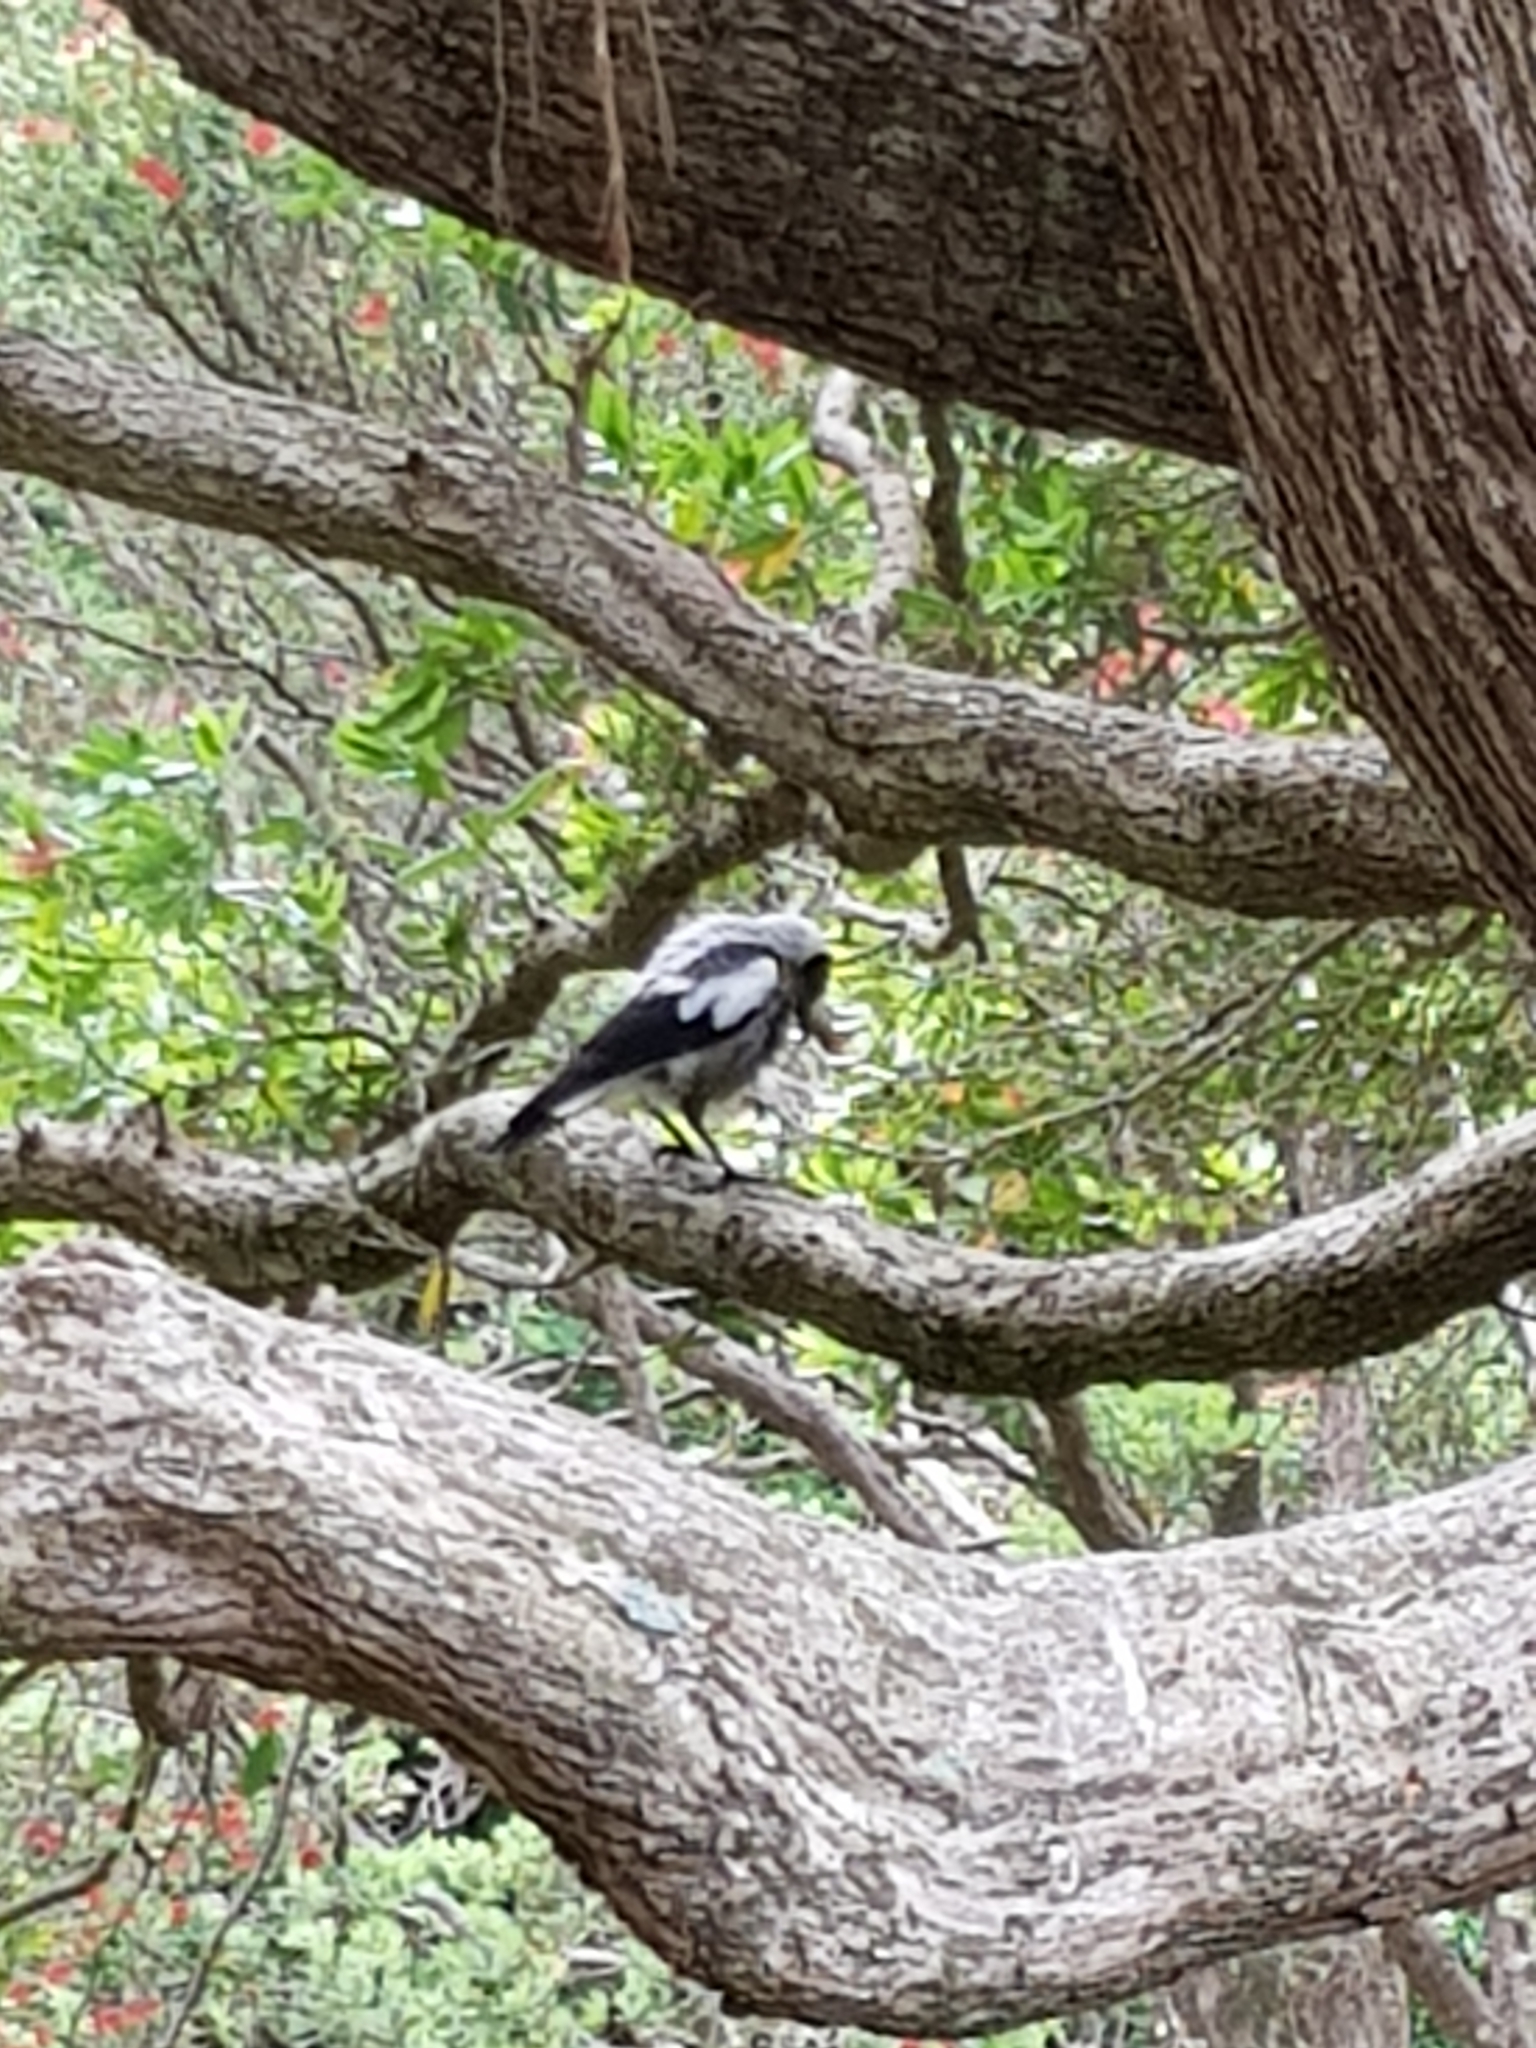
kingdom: Animalia
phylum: Chordata
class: Aves
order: Passeriformes
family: Cracticidae
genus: Gymnorhina
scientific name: Gymnorhina tibicen
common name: Australian magpie
